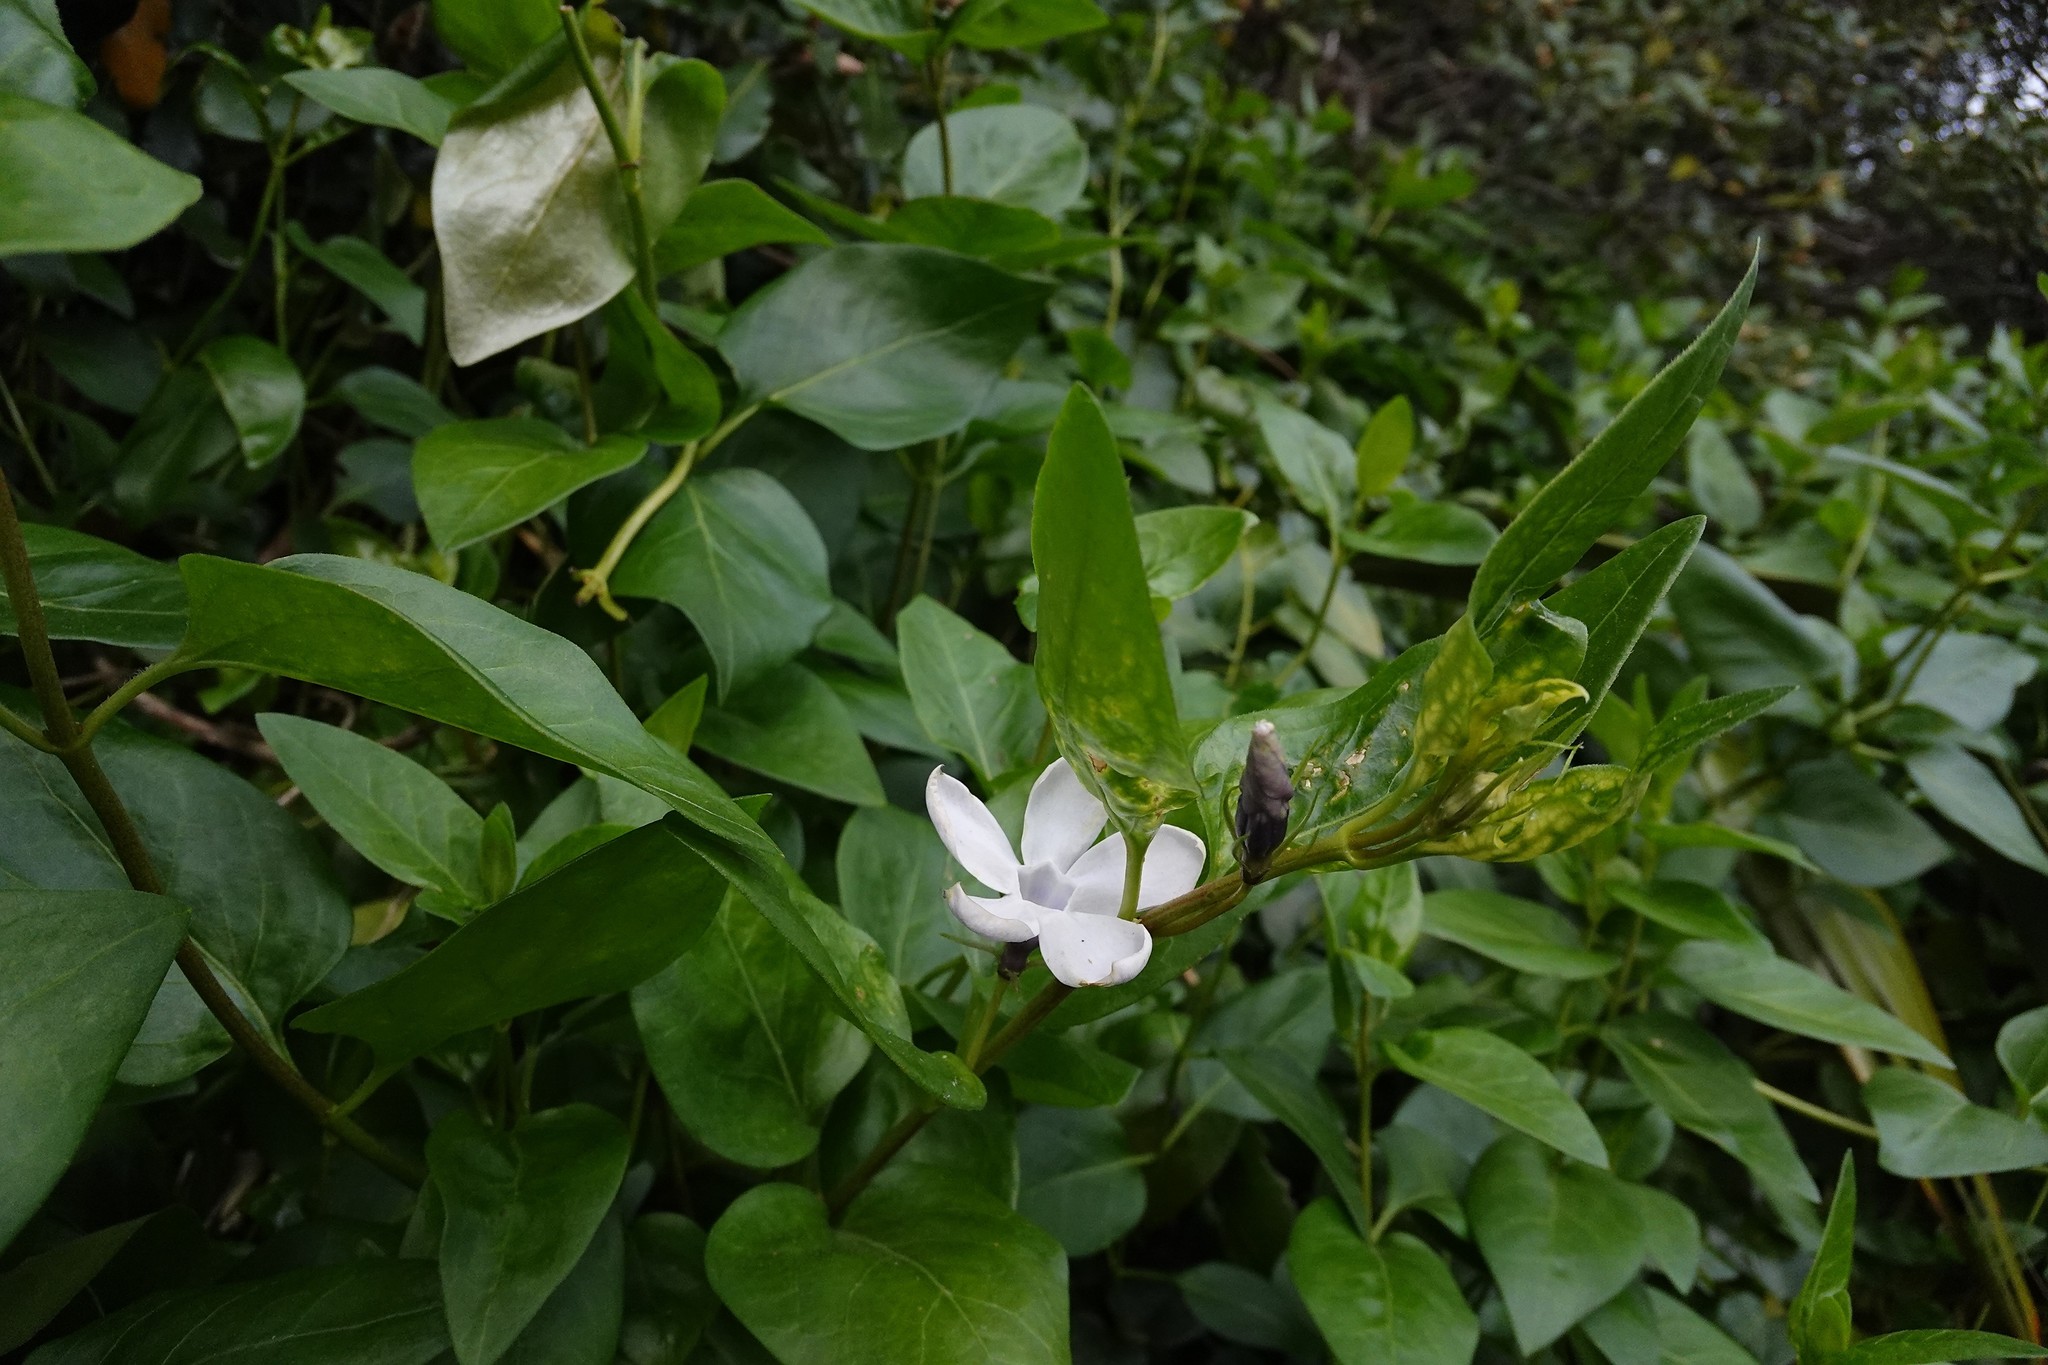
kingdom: Plantae
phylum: Tracheophyta
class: Magnoliopsida
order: Gentianales
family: Apocynaceae
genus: Vinca
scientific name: Vinca major
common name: Greater periwinkle
